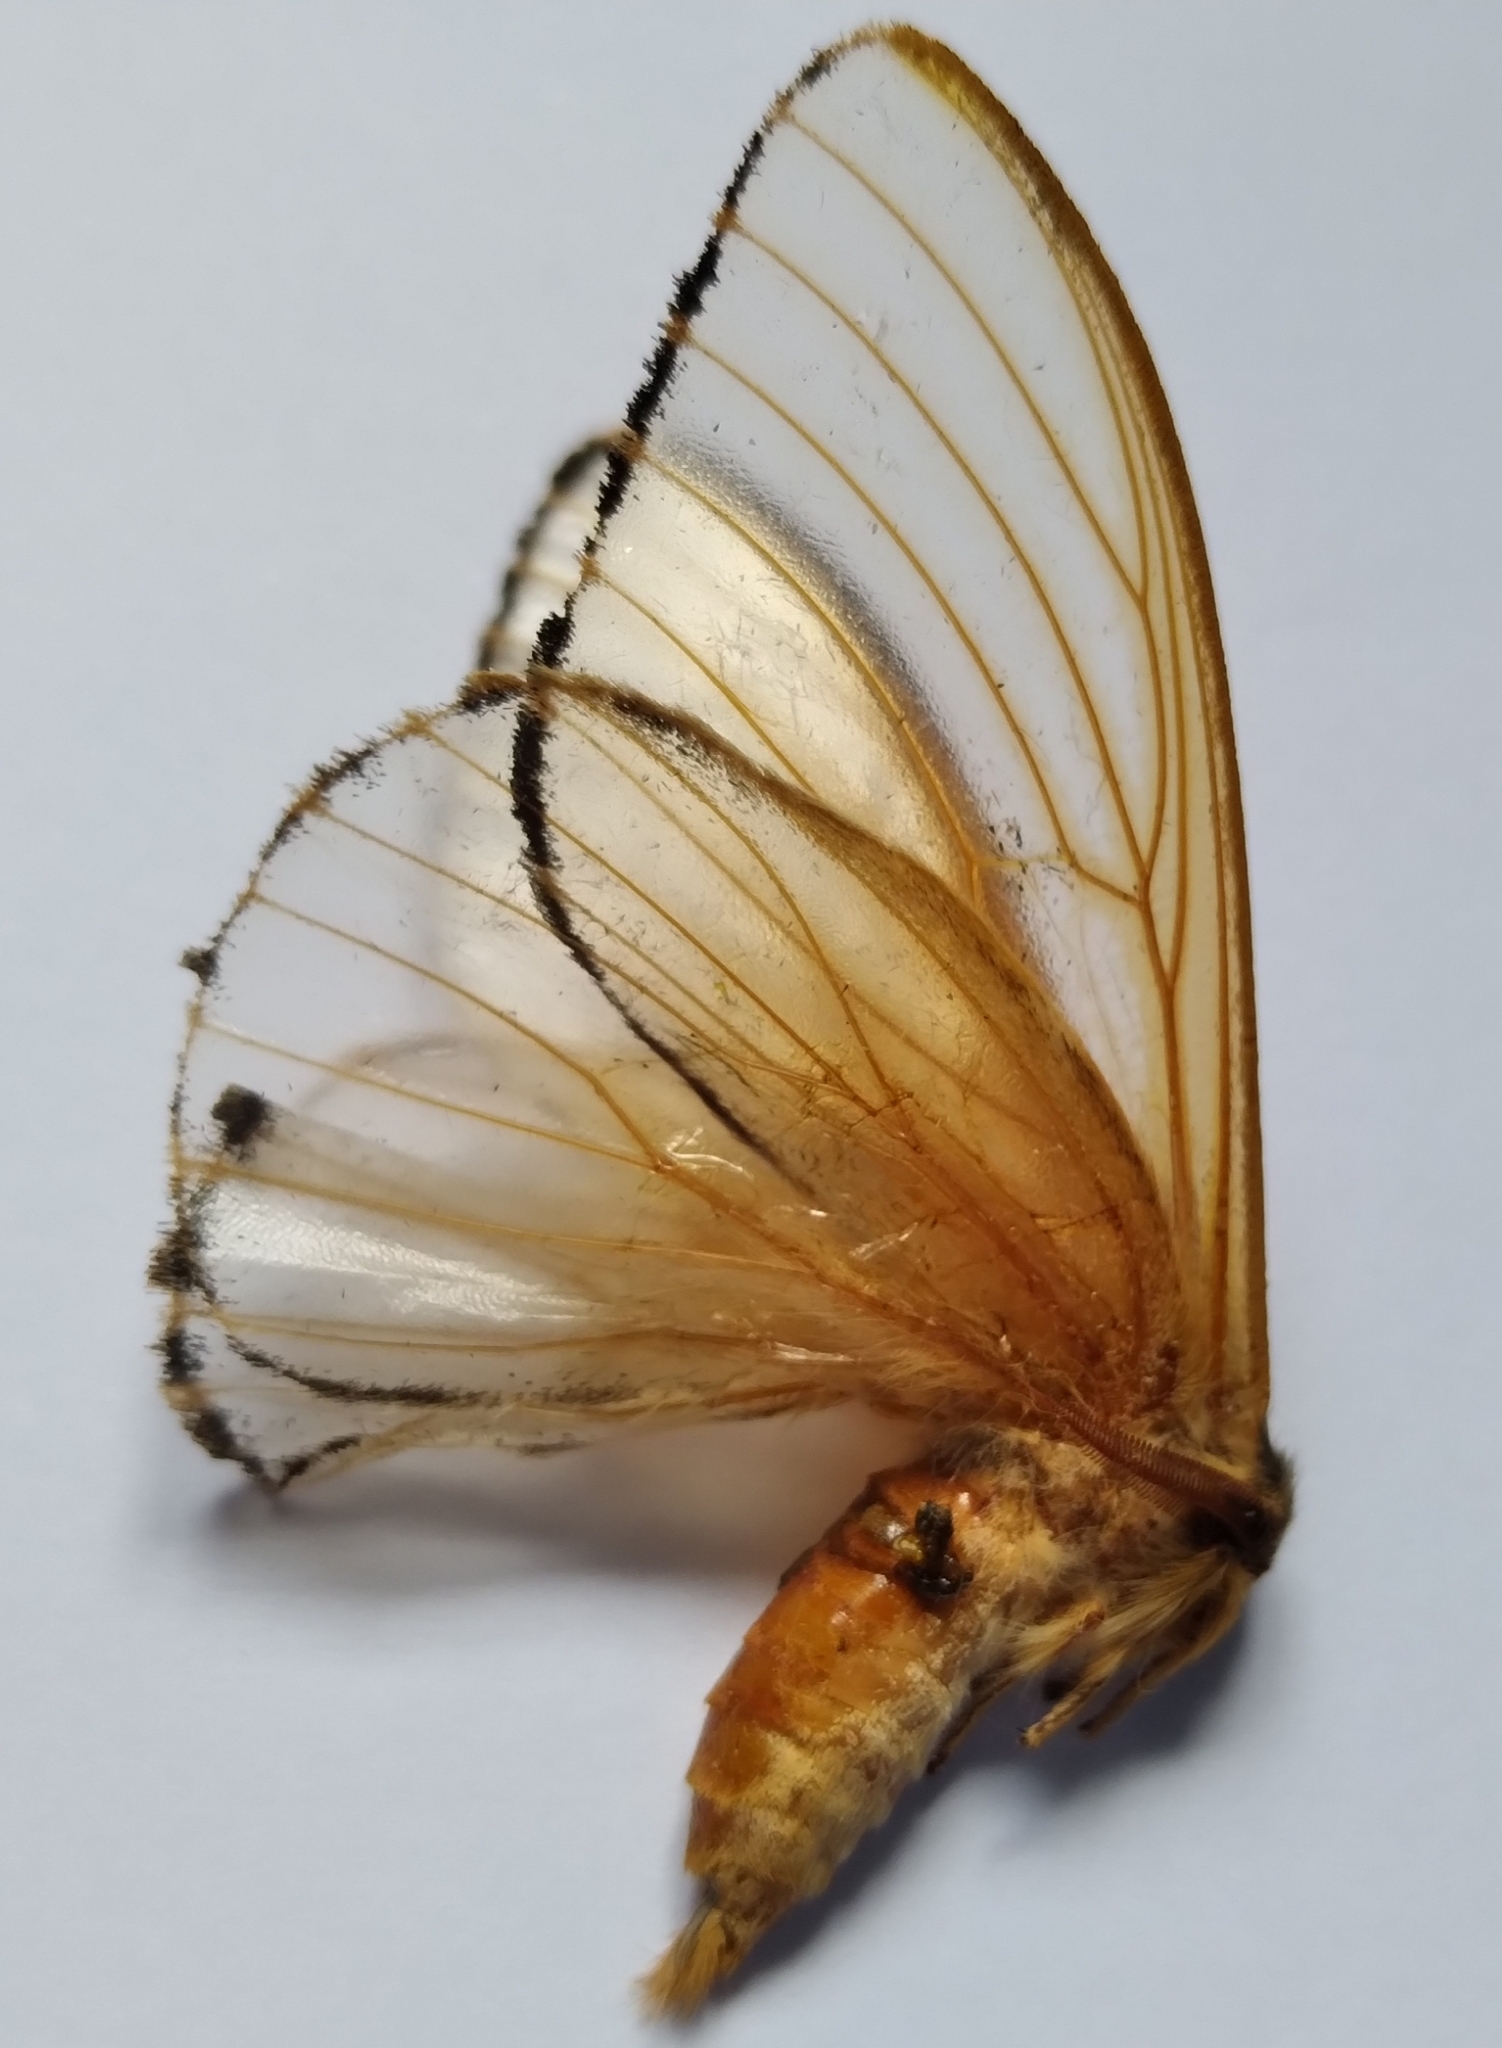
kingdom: Animalia
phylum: Arthropoda
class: Insecta
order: Lepidoptera
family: Saturniidae
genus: Heliconisa
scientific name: Heliconisa pagenstecheri
